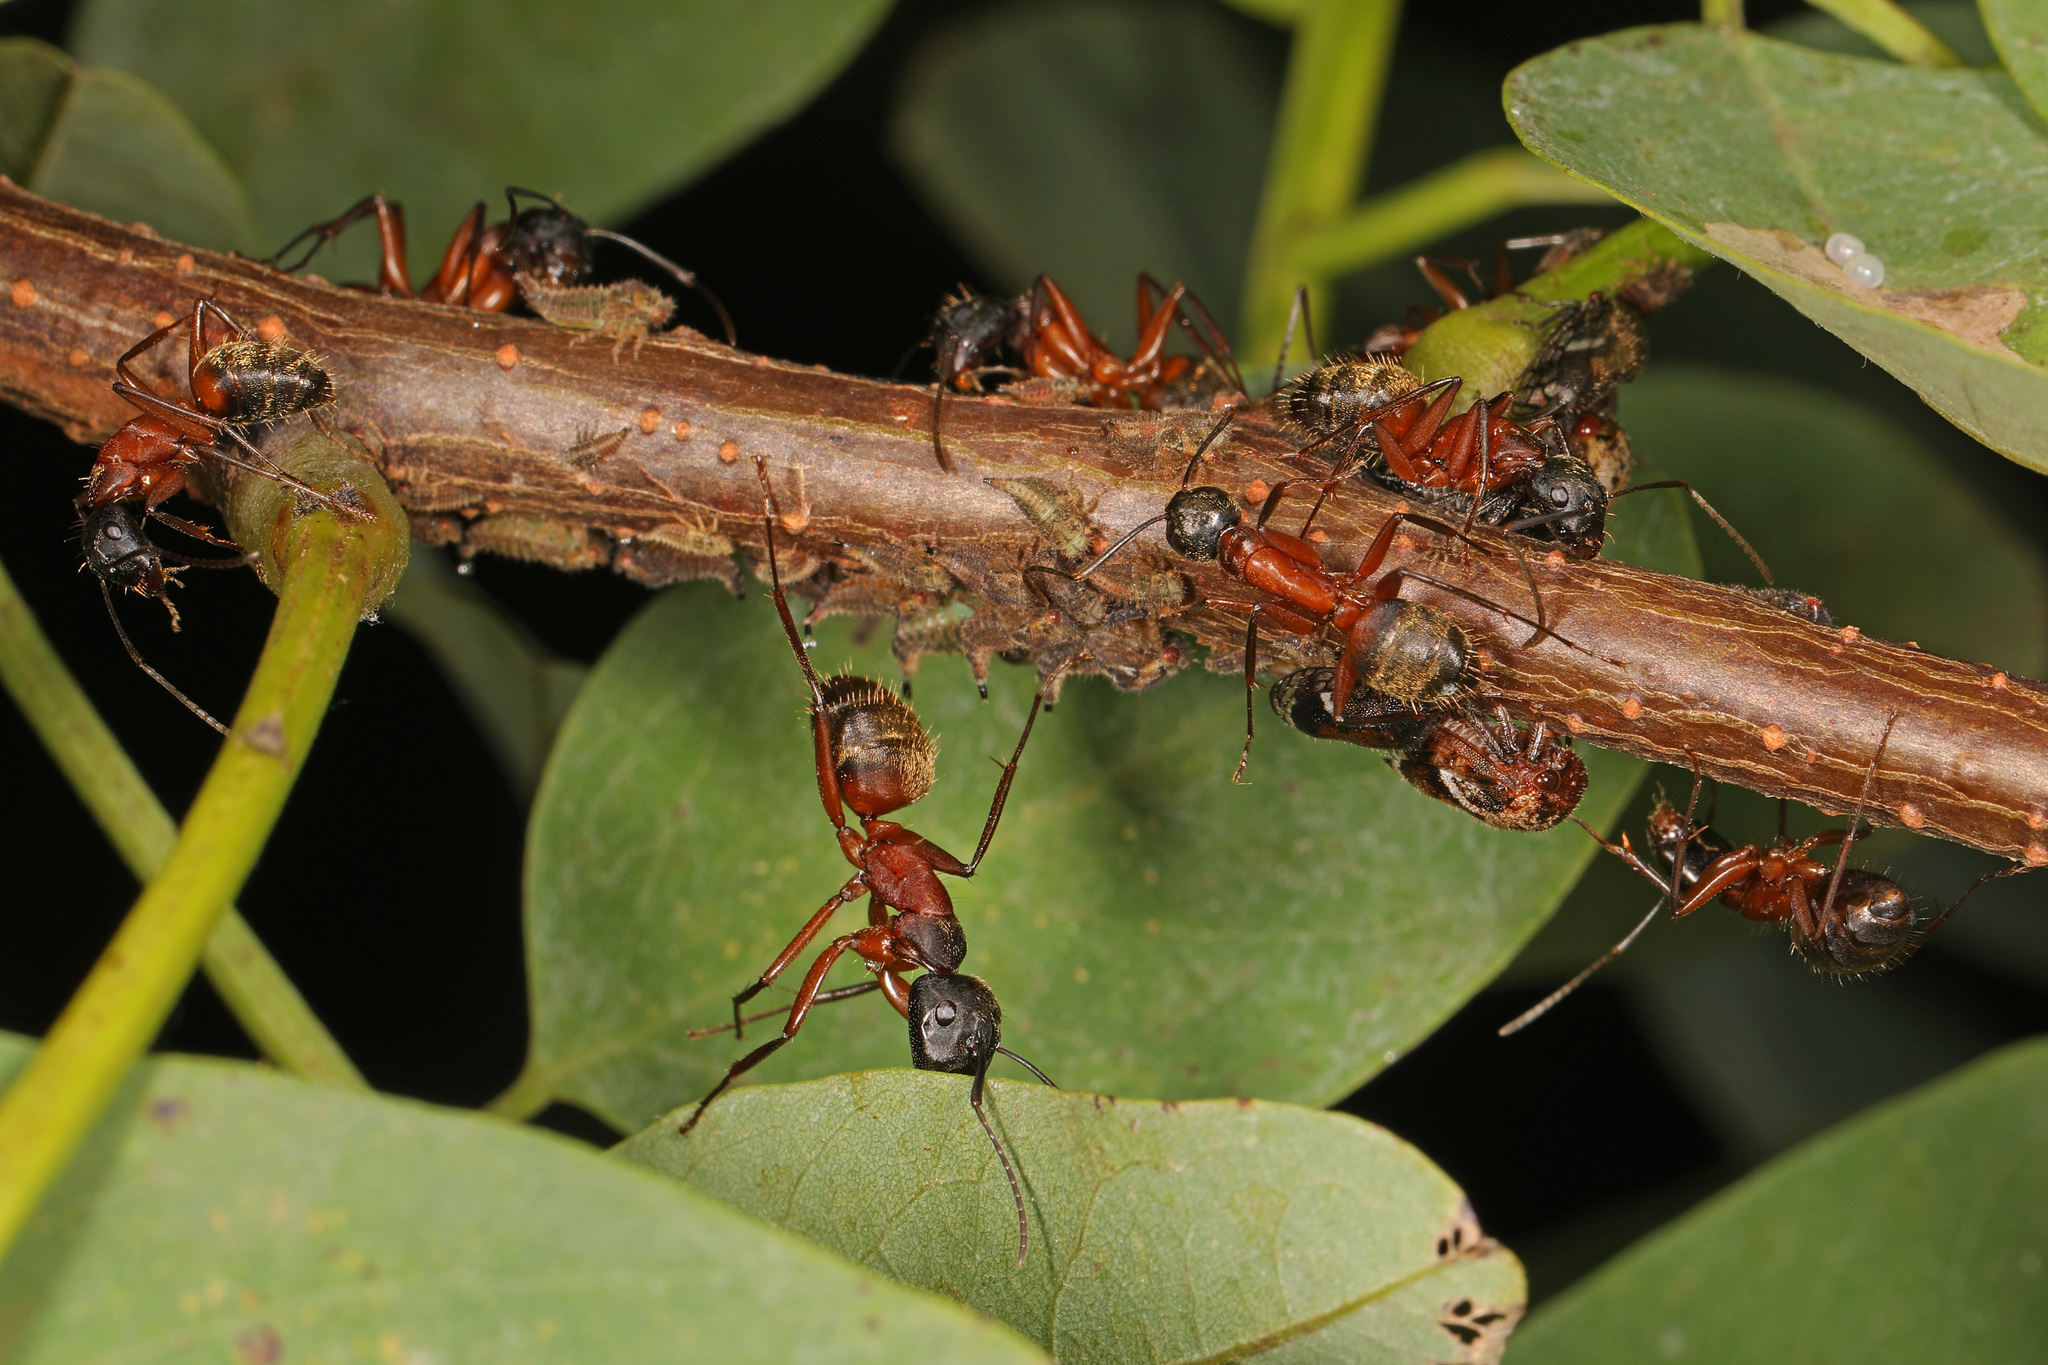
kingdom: Animalia
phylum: Arthropoda
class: Insecta
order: Hymenoptera
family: Formicidae
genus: Camponotus
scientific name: Camponotus chromaiodes
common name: Red carpenter ant
